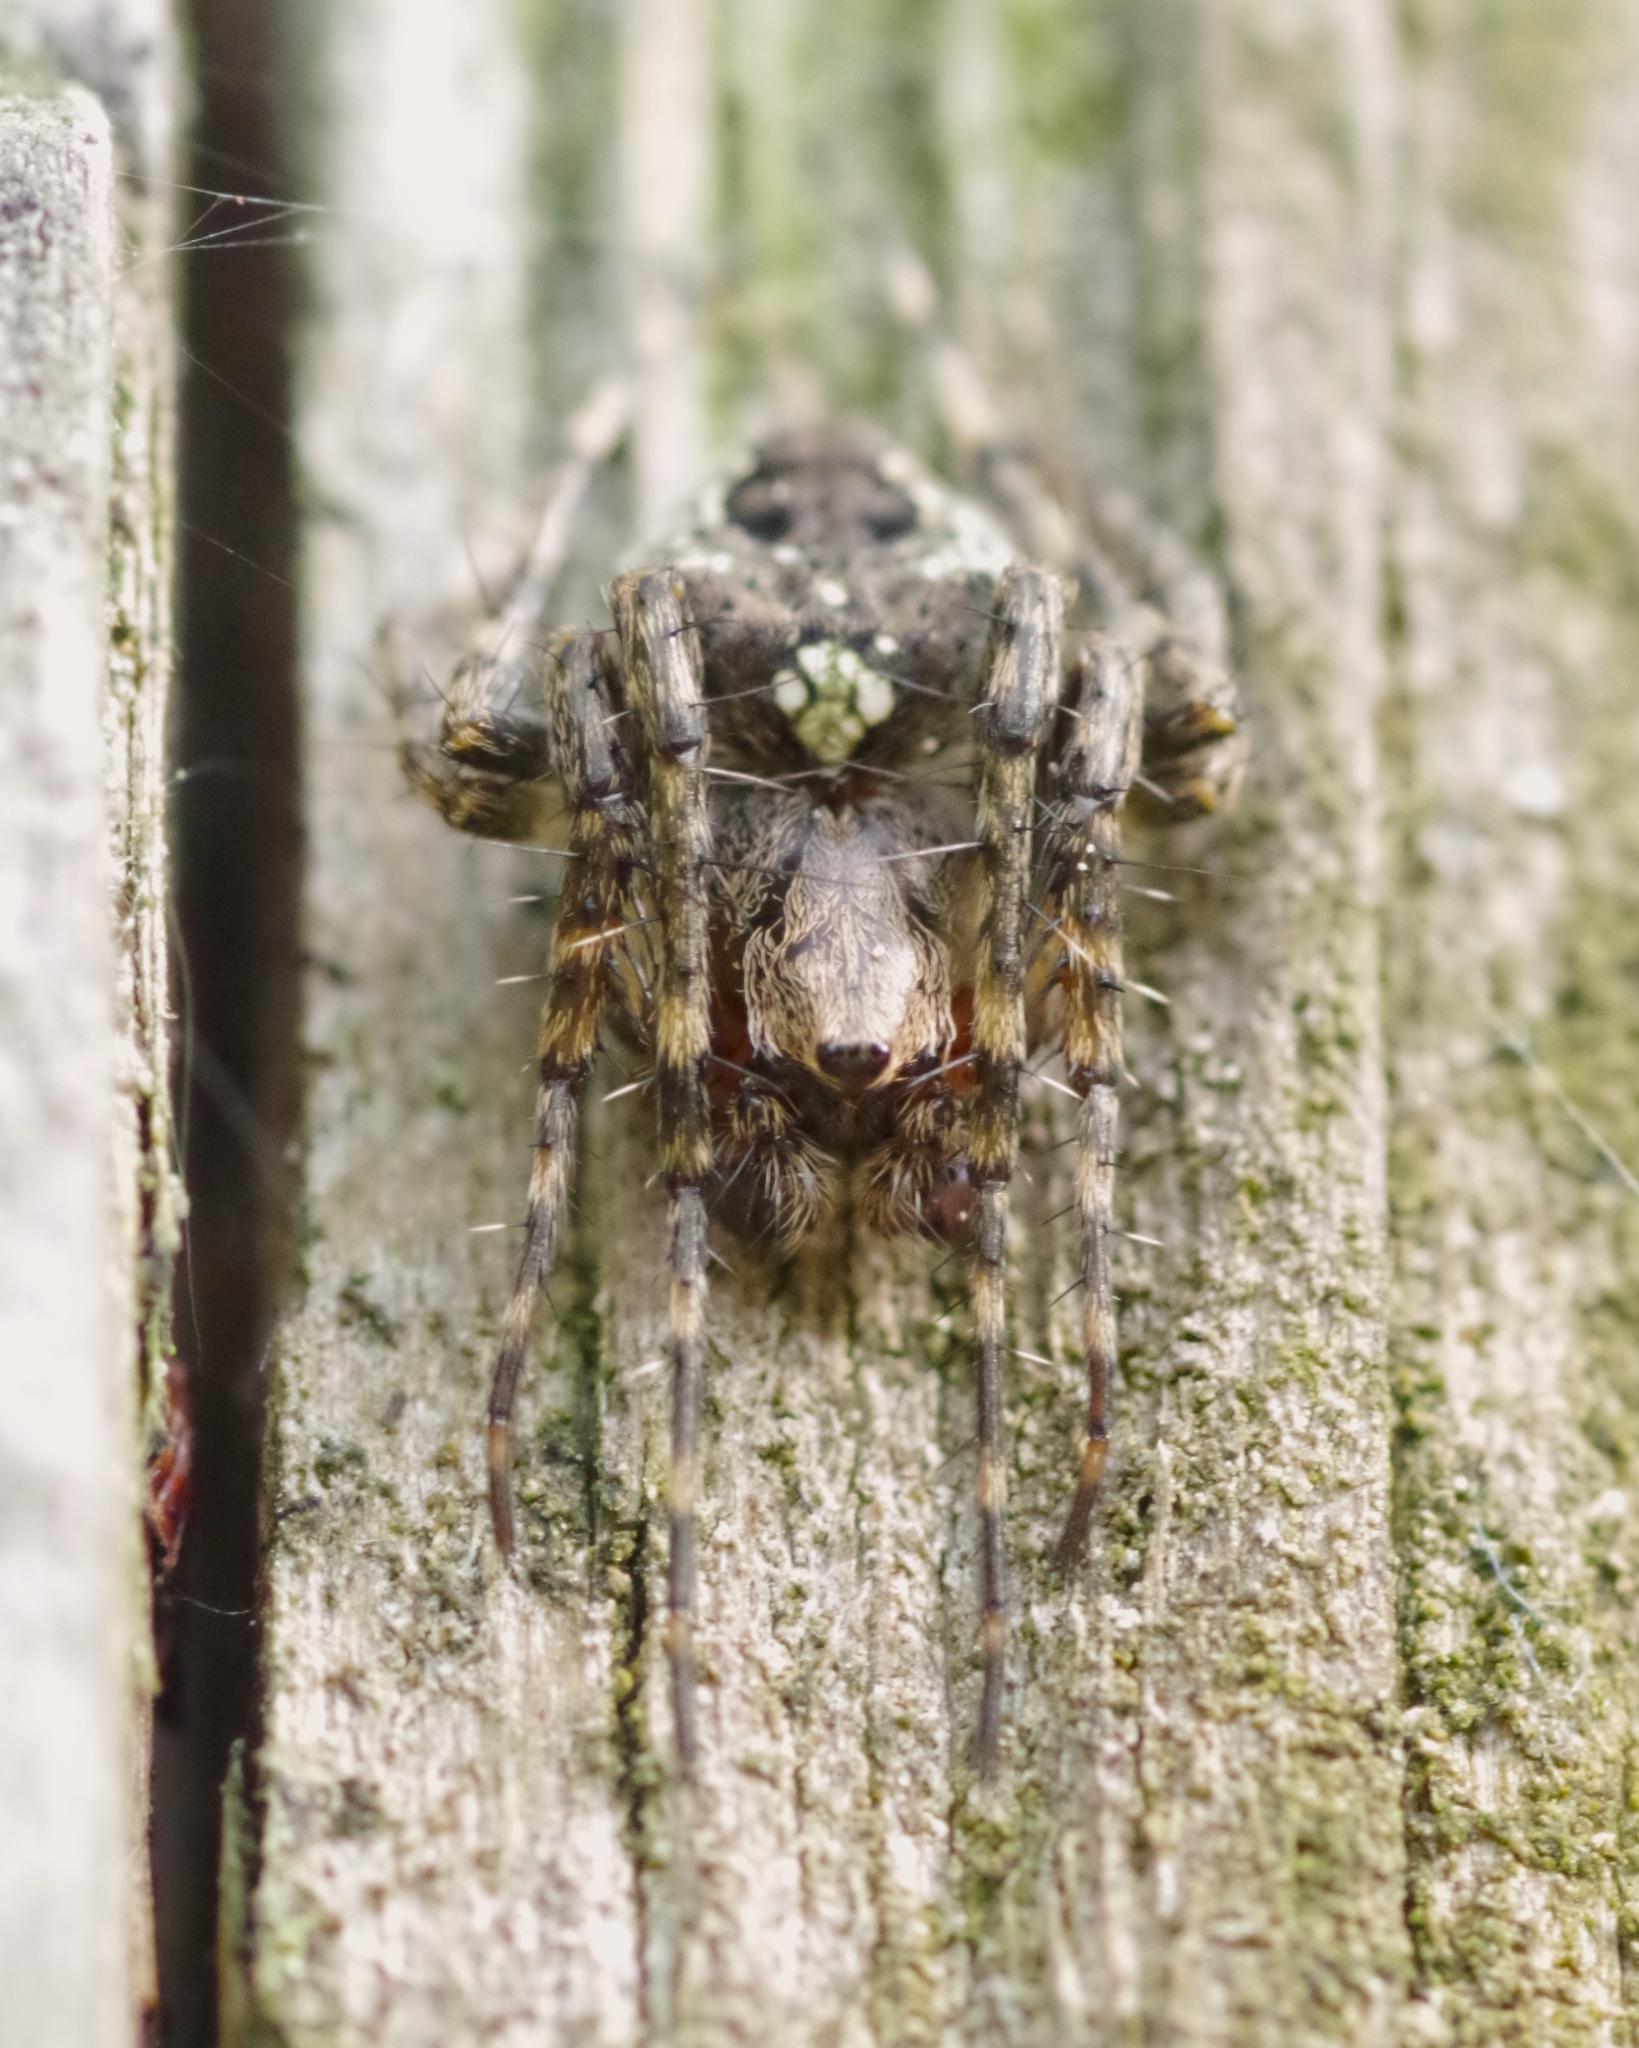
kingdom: Animalia
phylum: Arthropoda
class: Arachnida
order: Araneae
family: Araneidae
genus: Gibbaranea
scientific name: Gibbaranea gibbosa
